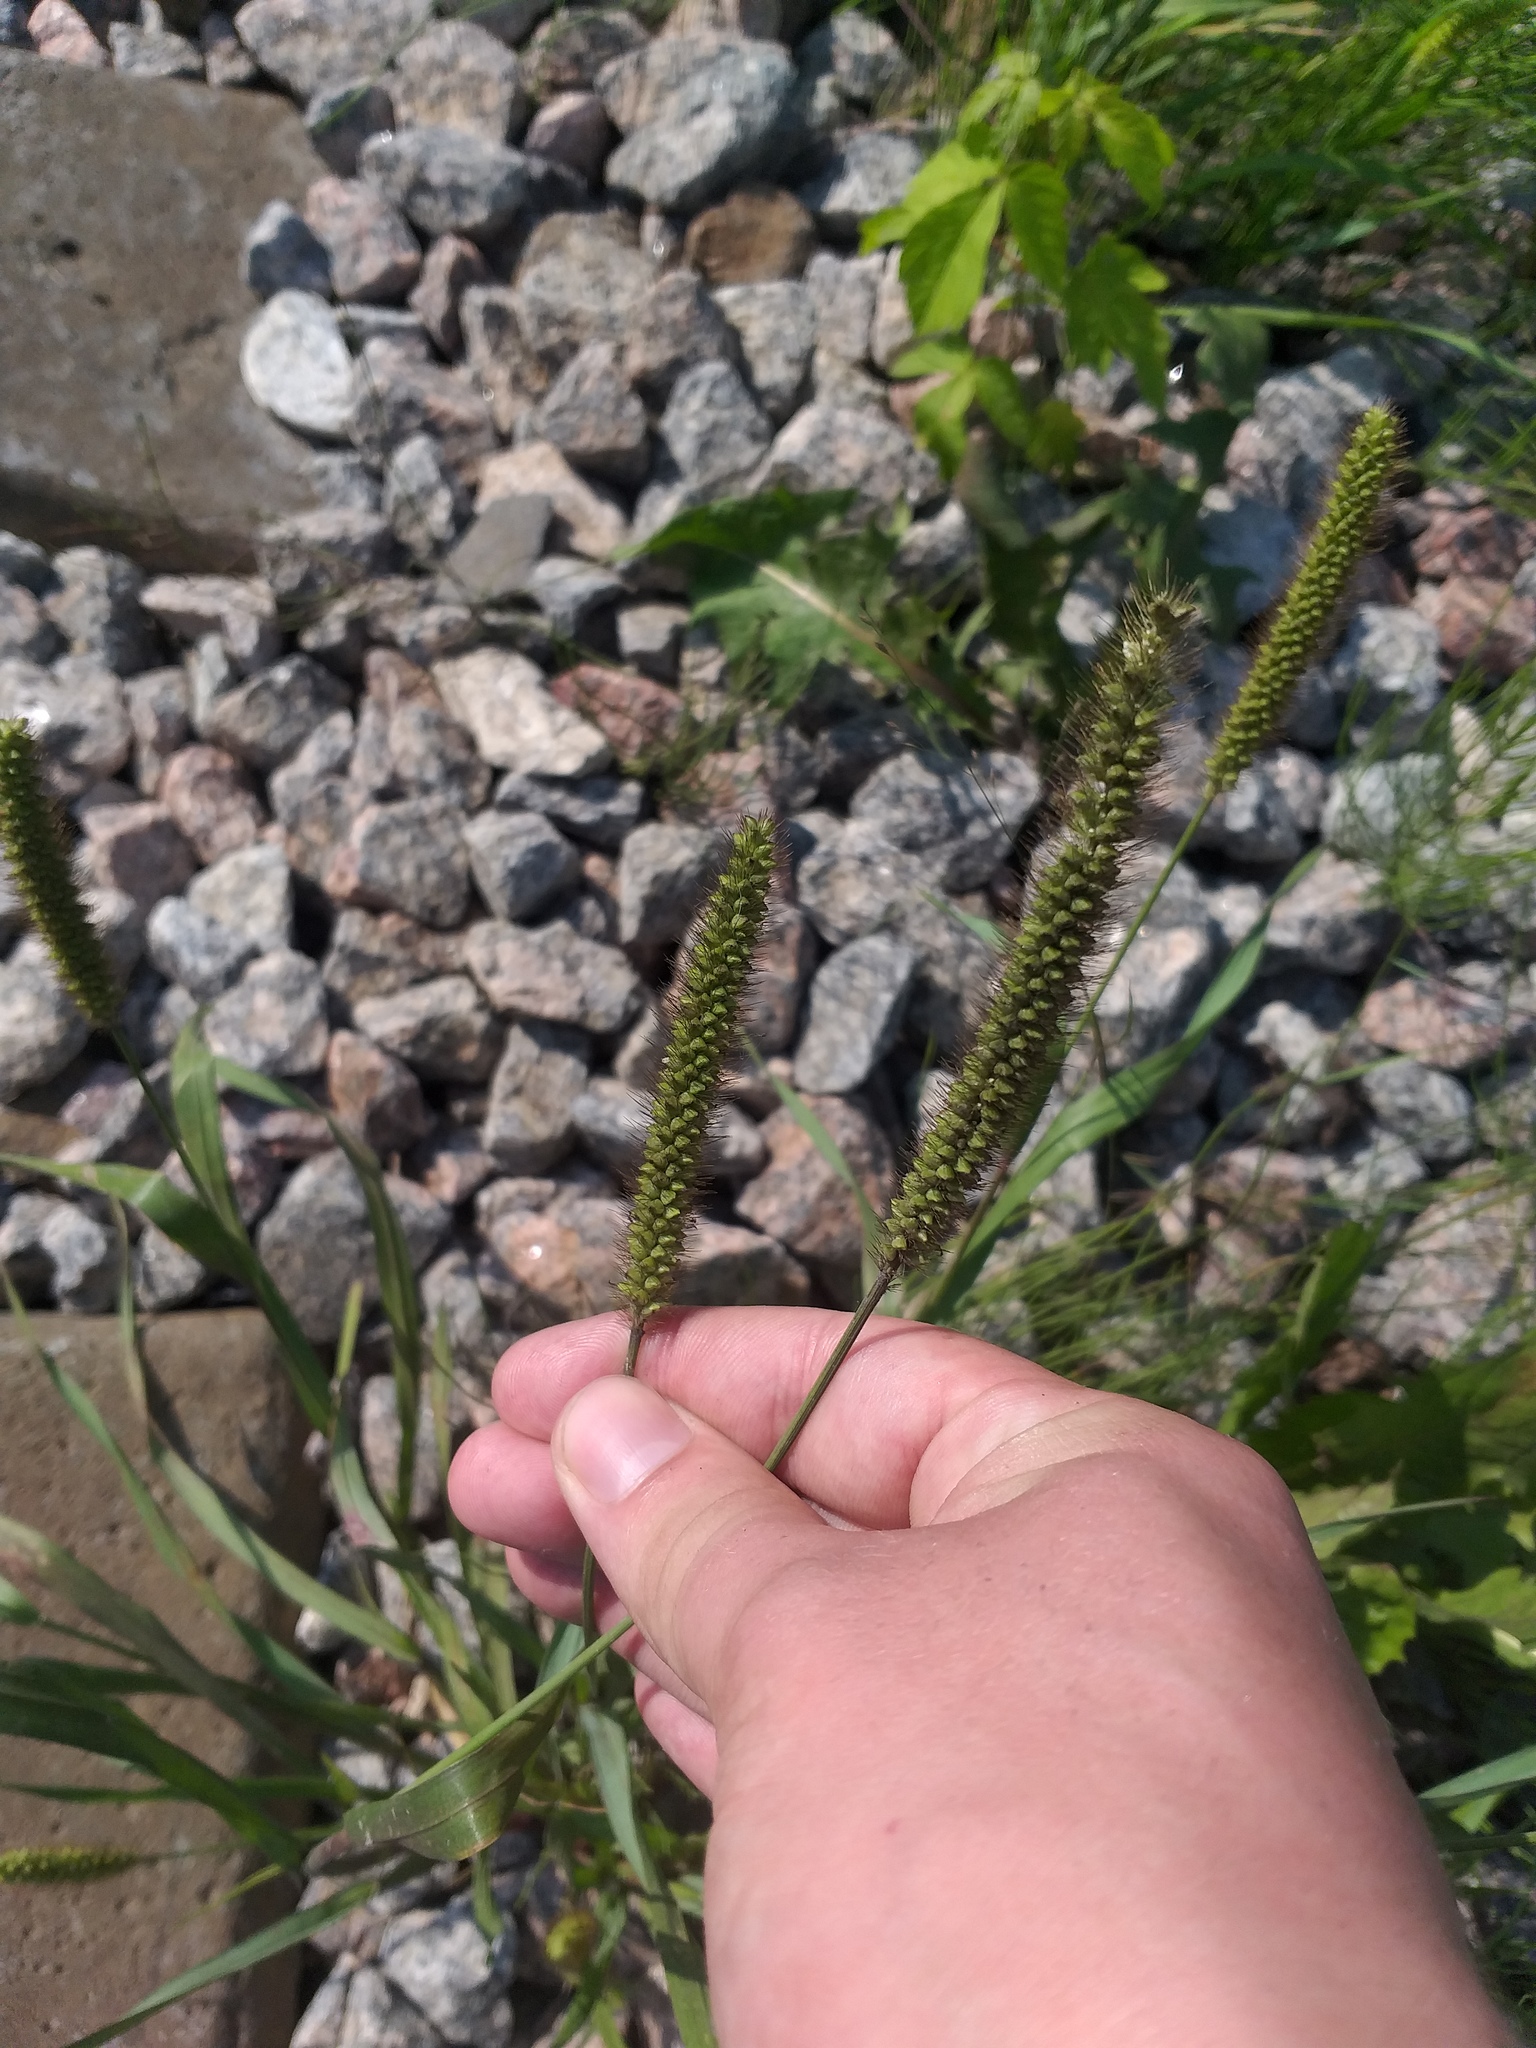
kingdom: Plantae
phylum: Tracheophyta
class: Liliopsida
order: Poales
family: Poaceae
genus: Setaria
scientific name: Setaria pumila
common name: Yellow bristle-grass
